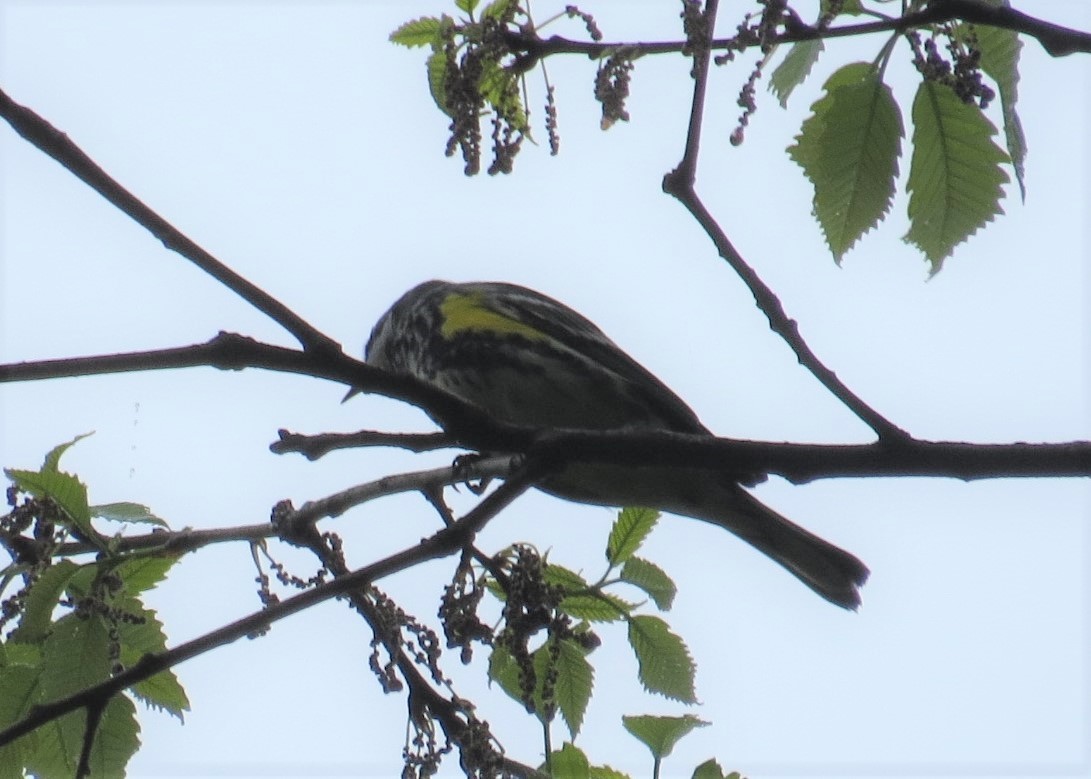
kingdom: Animalia
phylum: Chordata
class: Aves
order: Passeriformes
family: Parulidae
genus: Setophaga
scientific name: Setophaga coronata
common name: Myrtle warbler
